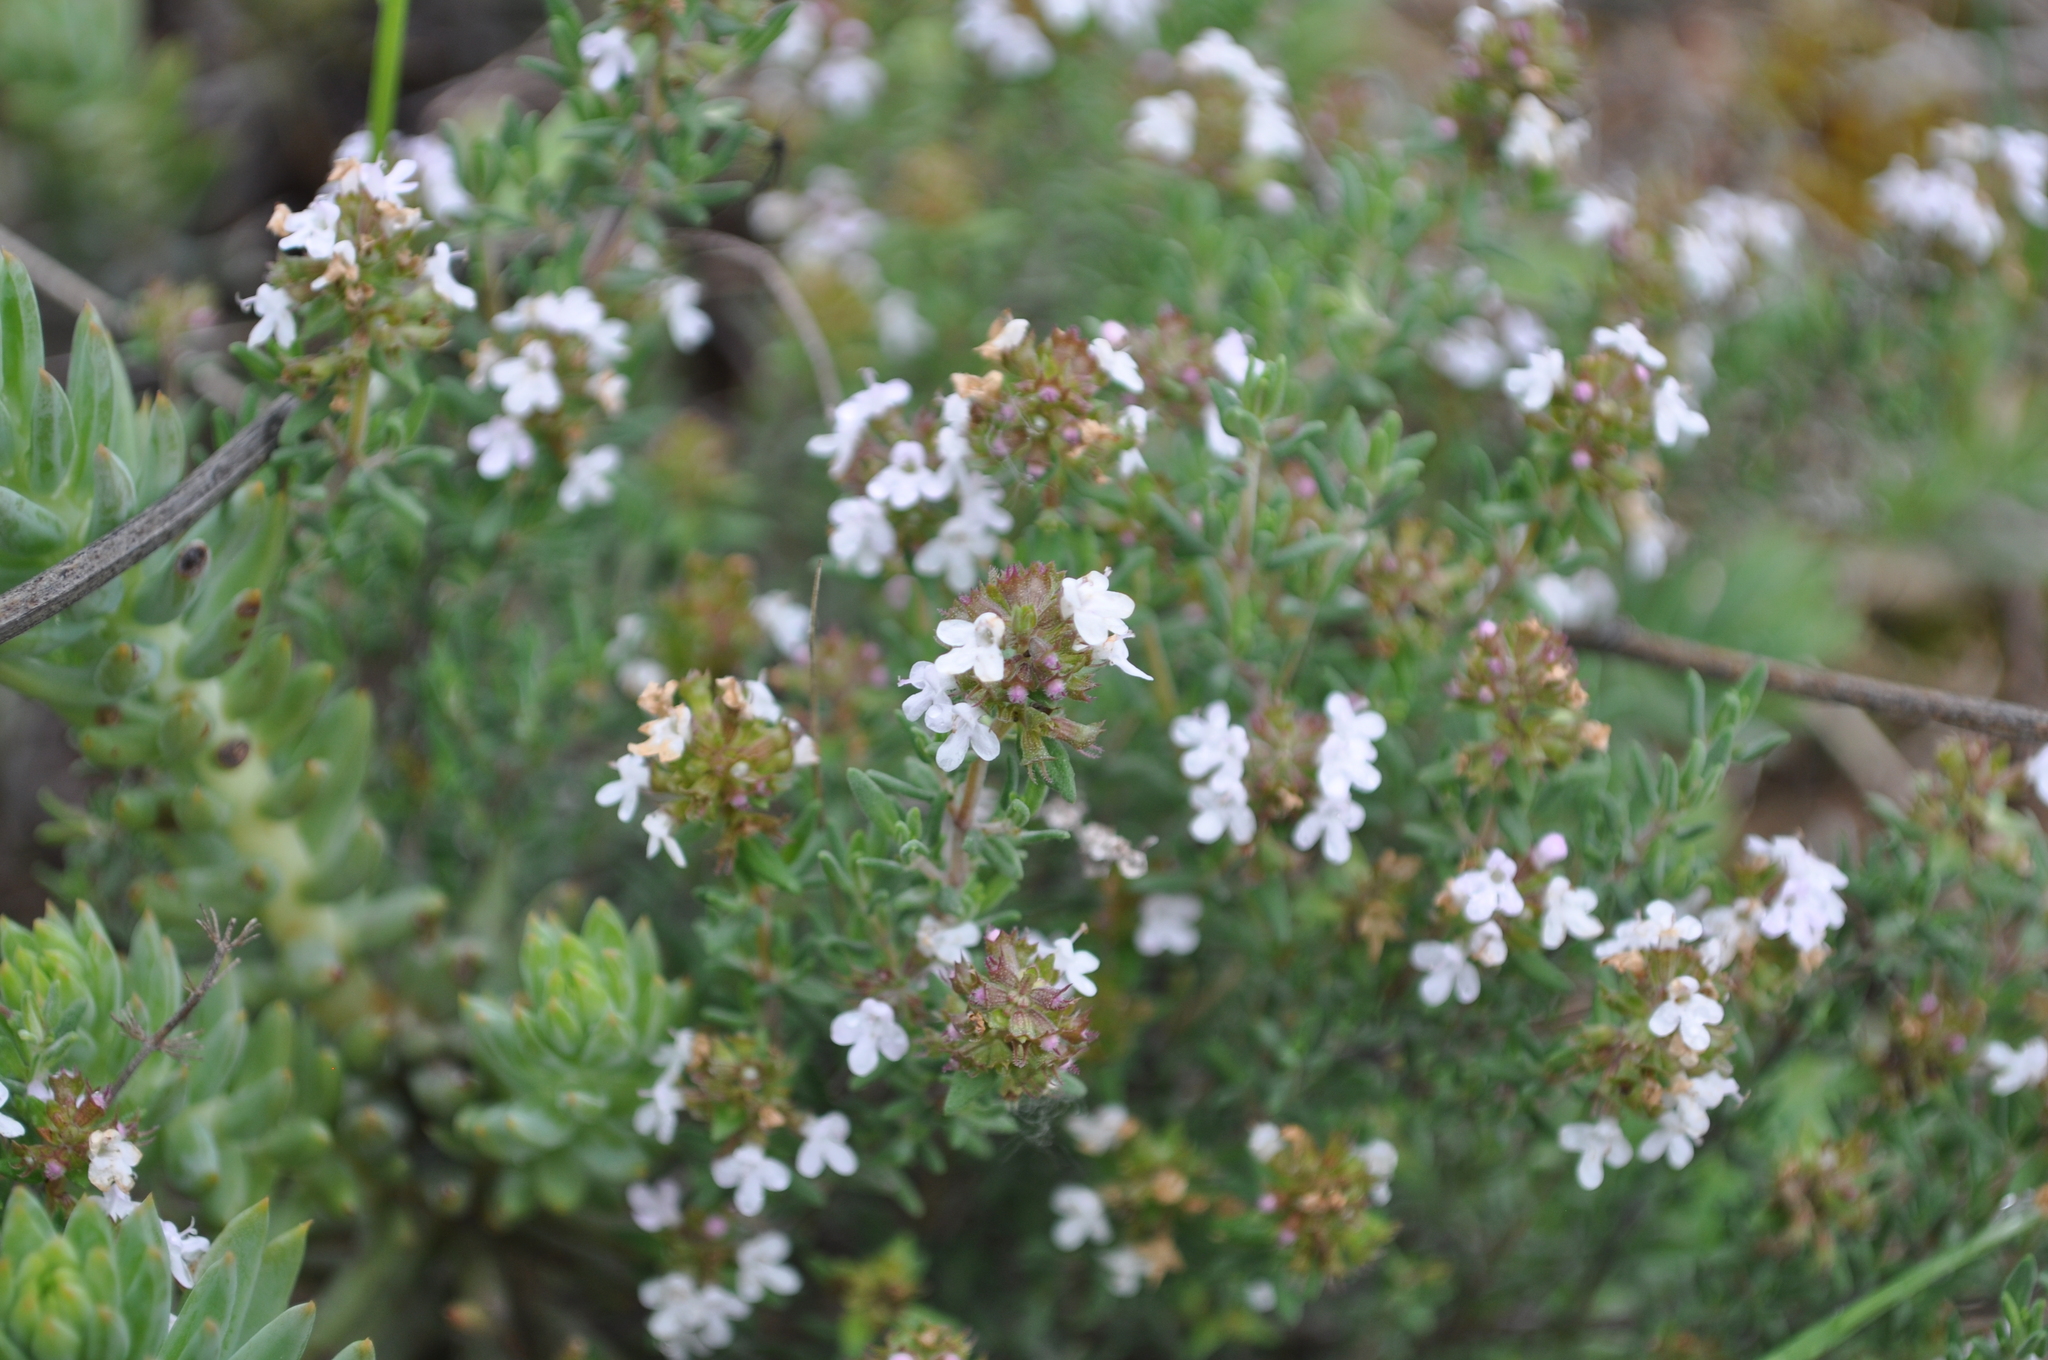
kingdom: Plantae
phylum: Tracheophyta
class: Magnoliopsida
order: Lamiales
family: Lamiaceae
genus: Thymus
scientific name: Thymus vulgaris
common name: Garden thyme
